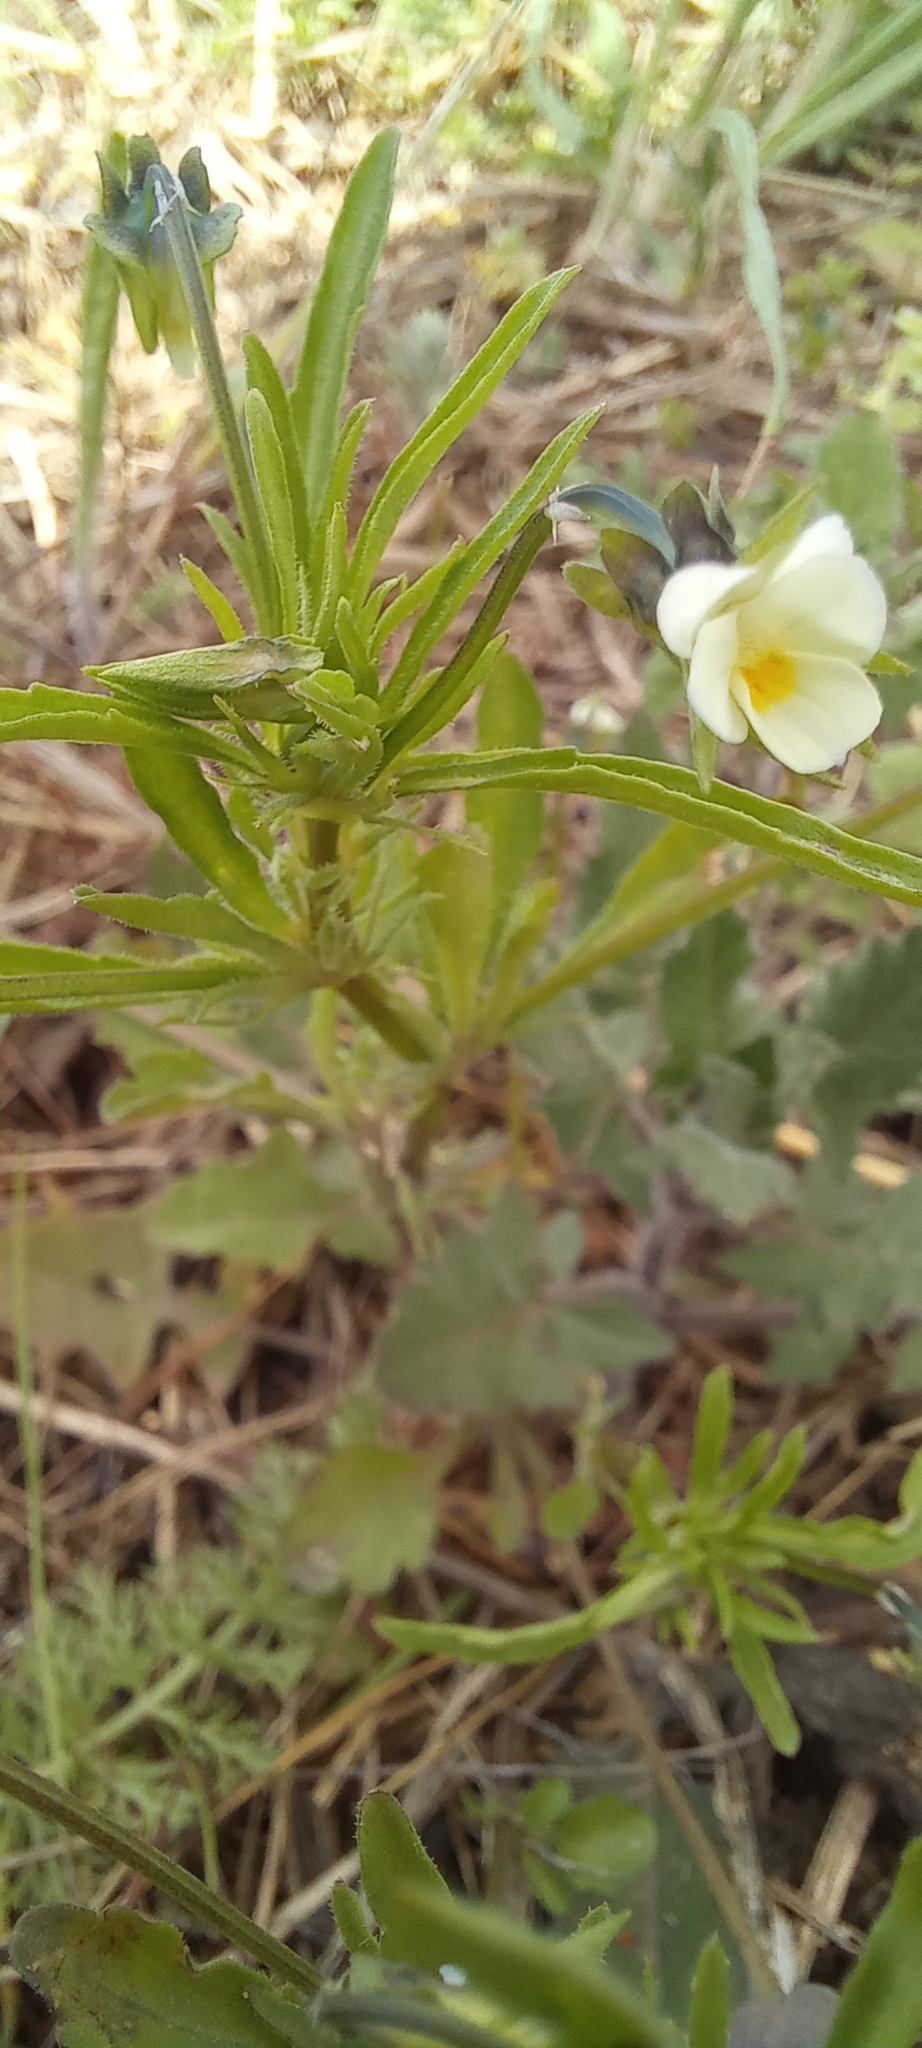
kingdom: Plantae
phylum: Tracheophyta
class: Magnoliopsida
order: Malpighiales
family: Violaceae
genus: Viola
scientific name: Viola arvensis
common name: Field pansy
